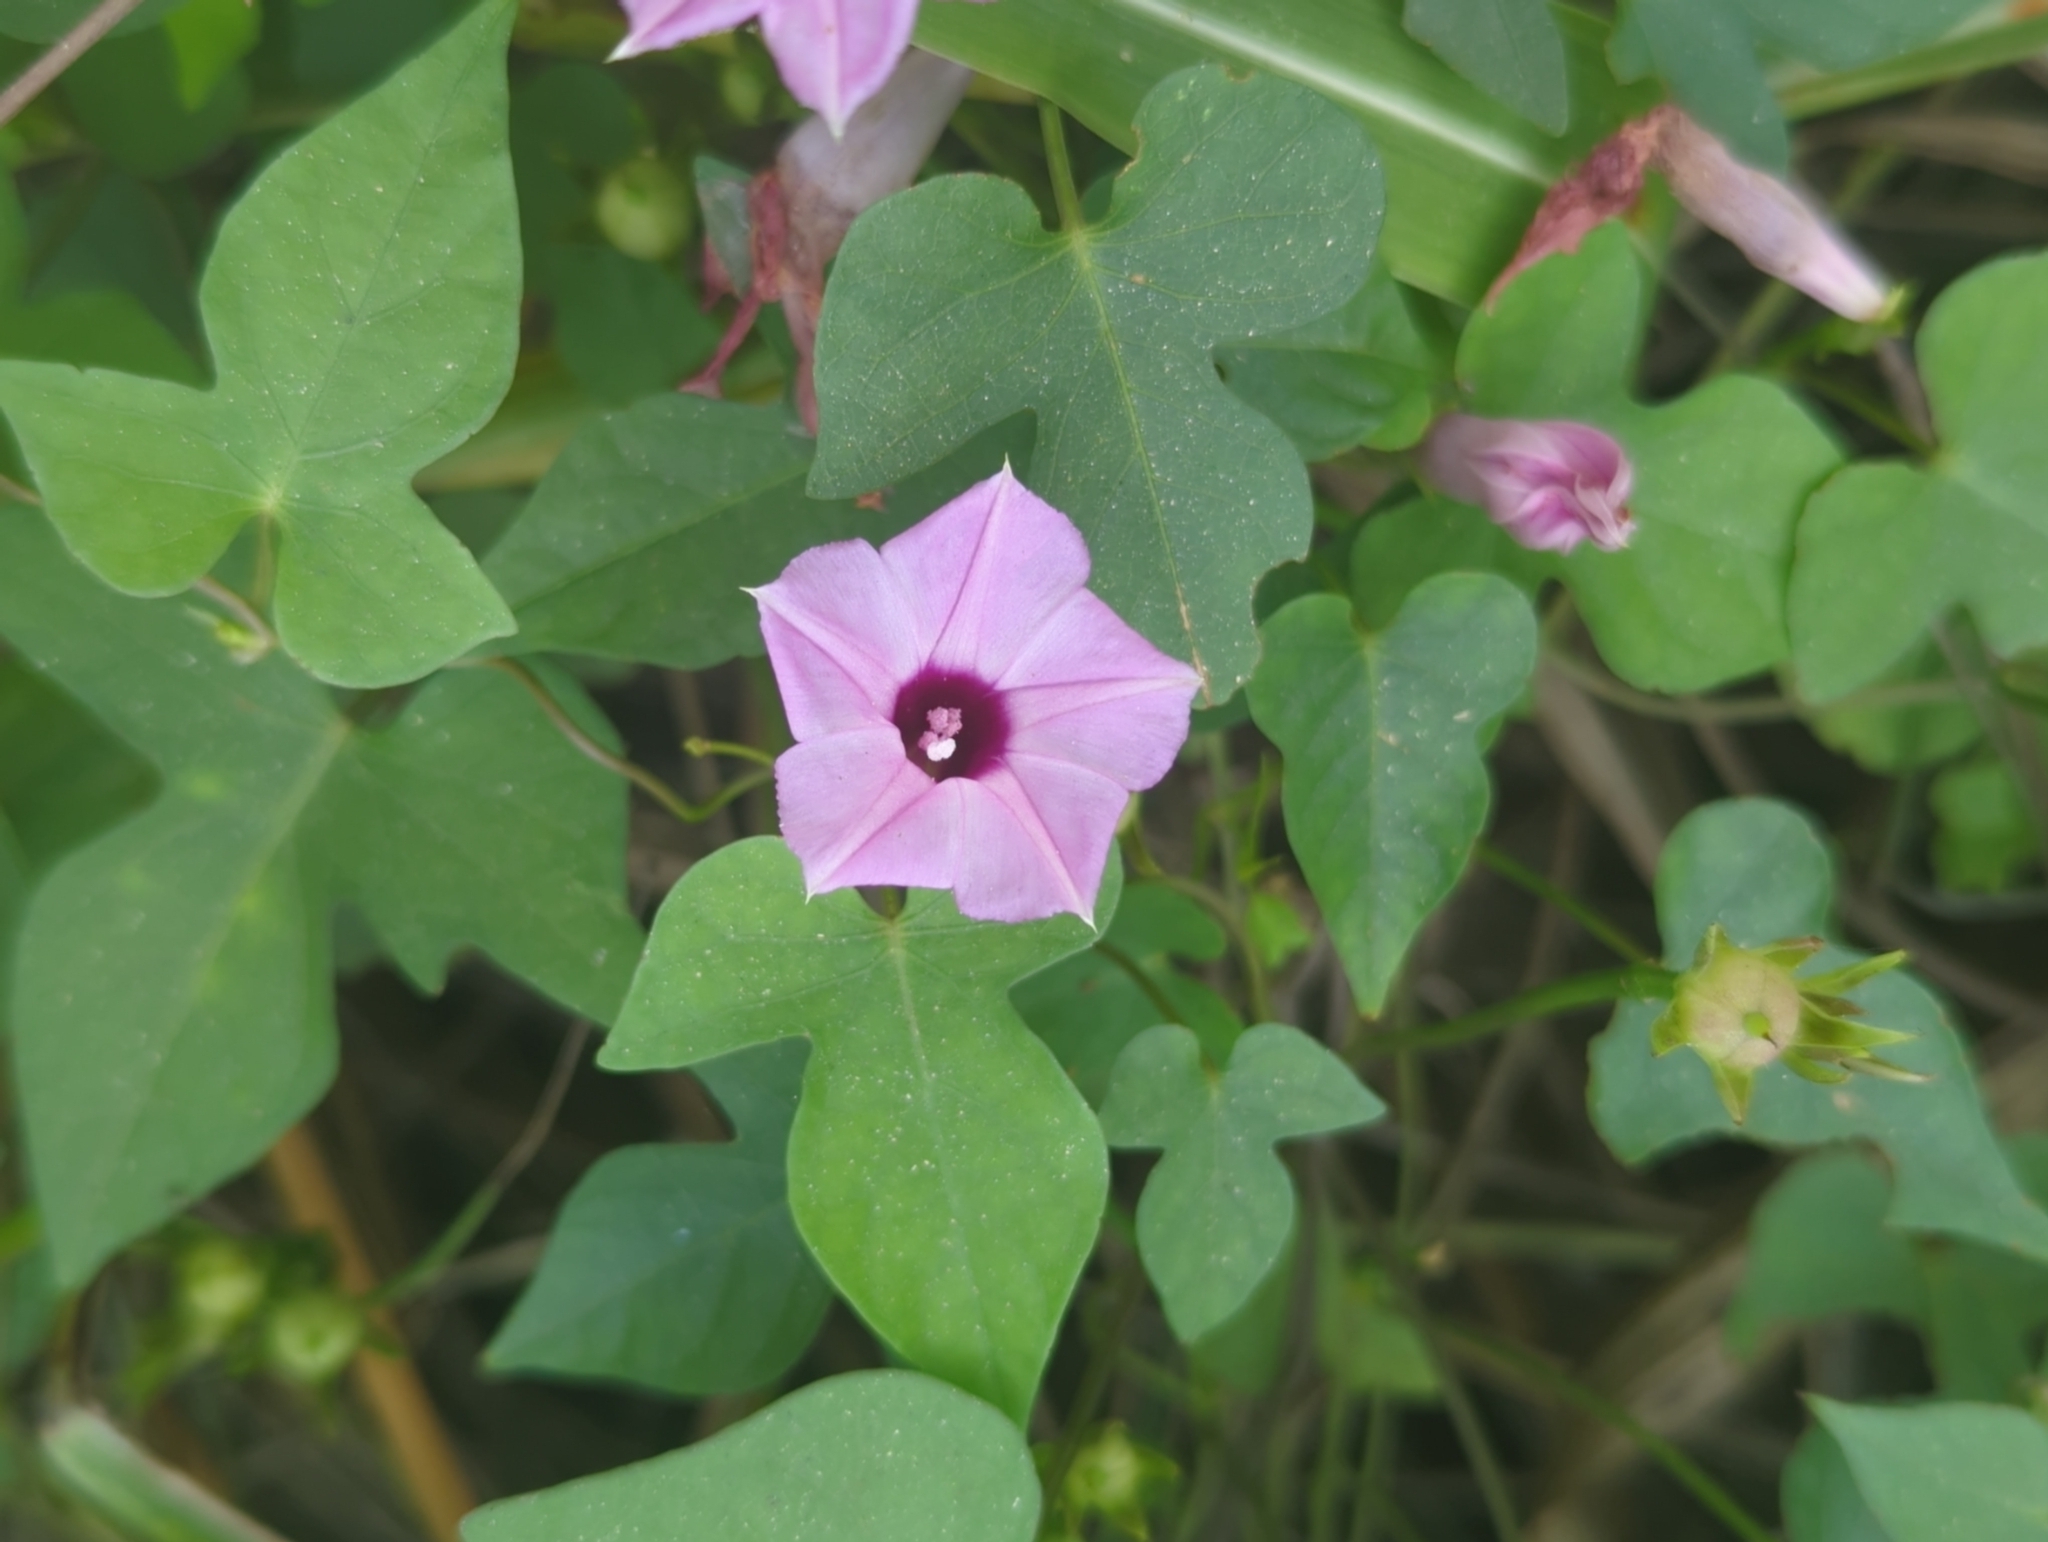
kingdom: Plantae
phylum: Tracheophyta
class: Magnoliopsida
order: Solanales
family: Convolvulaceae
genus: Ipomoea
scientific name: Ipomoea cordatotriloba
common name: Cotton morning glory
